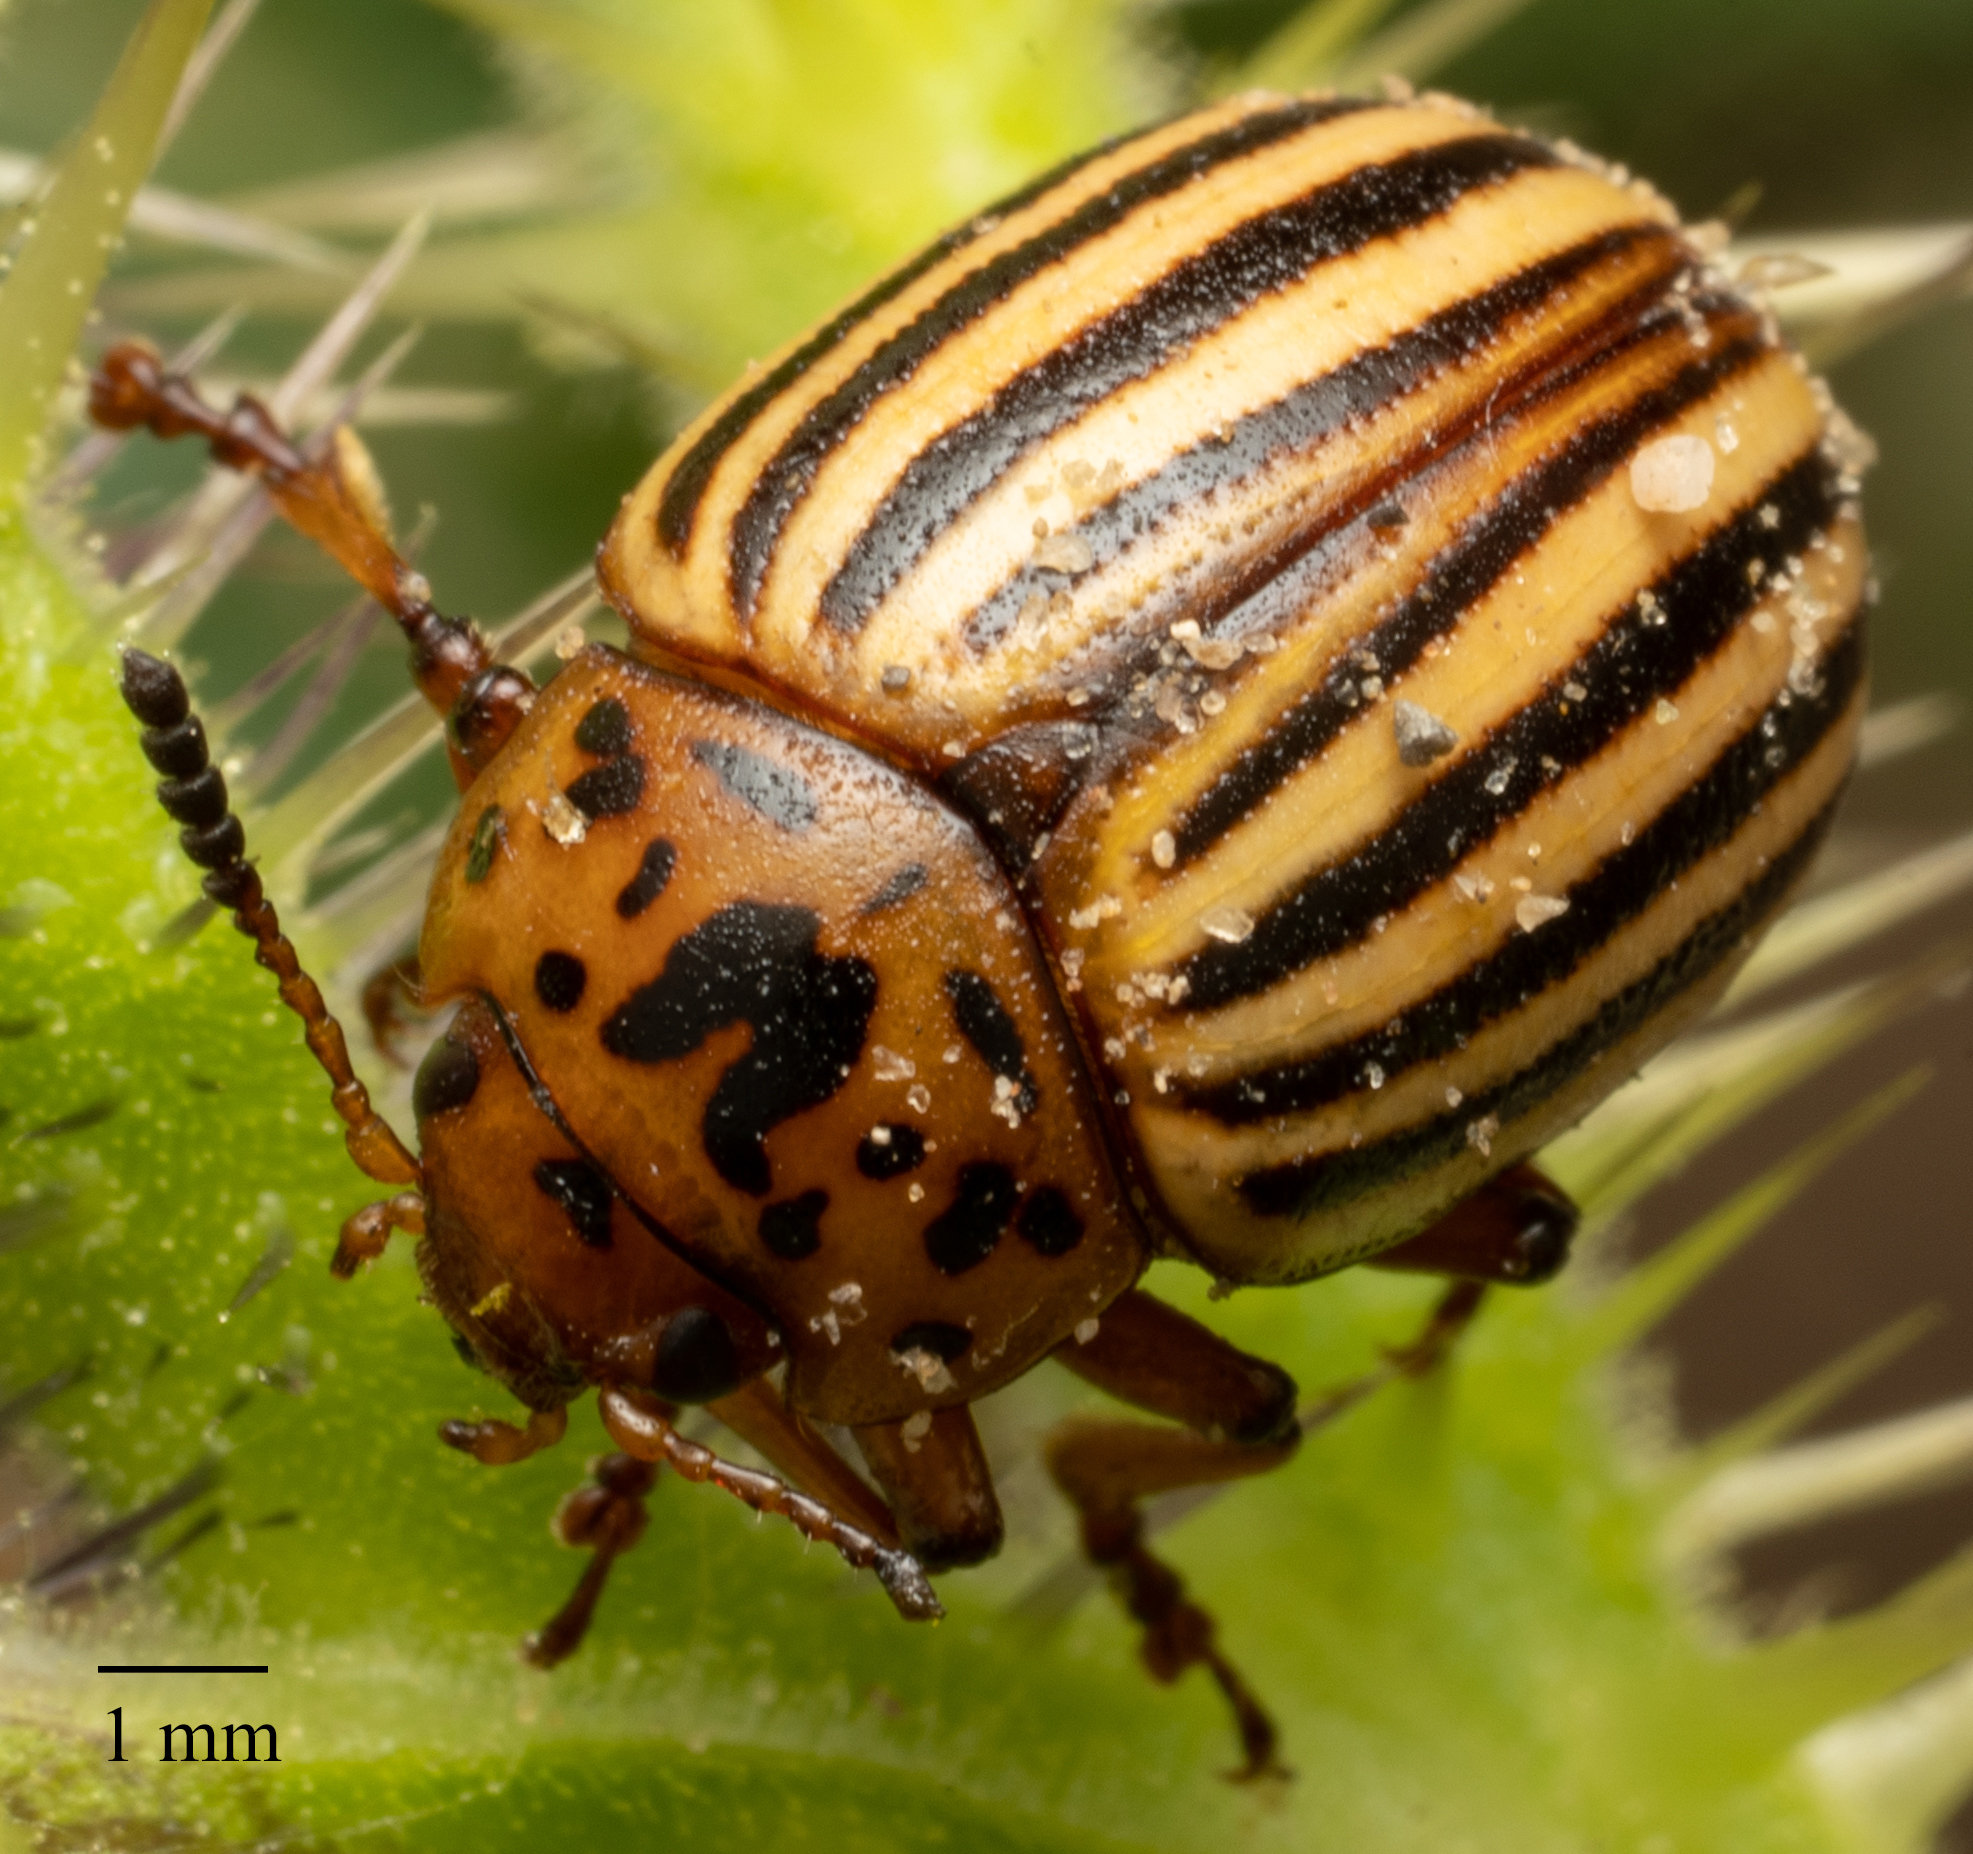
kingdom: Animalia
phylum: Arthropoda
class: Insecta
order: Coleoptera
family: Chrysomelidae
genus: Leptinotarsa
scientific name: Leptinotarsa decemlineata
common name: Colorado potato beetle
